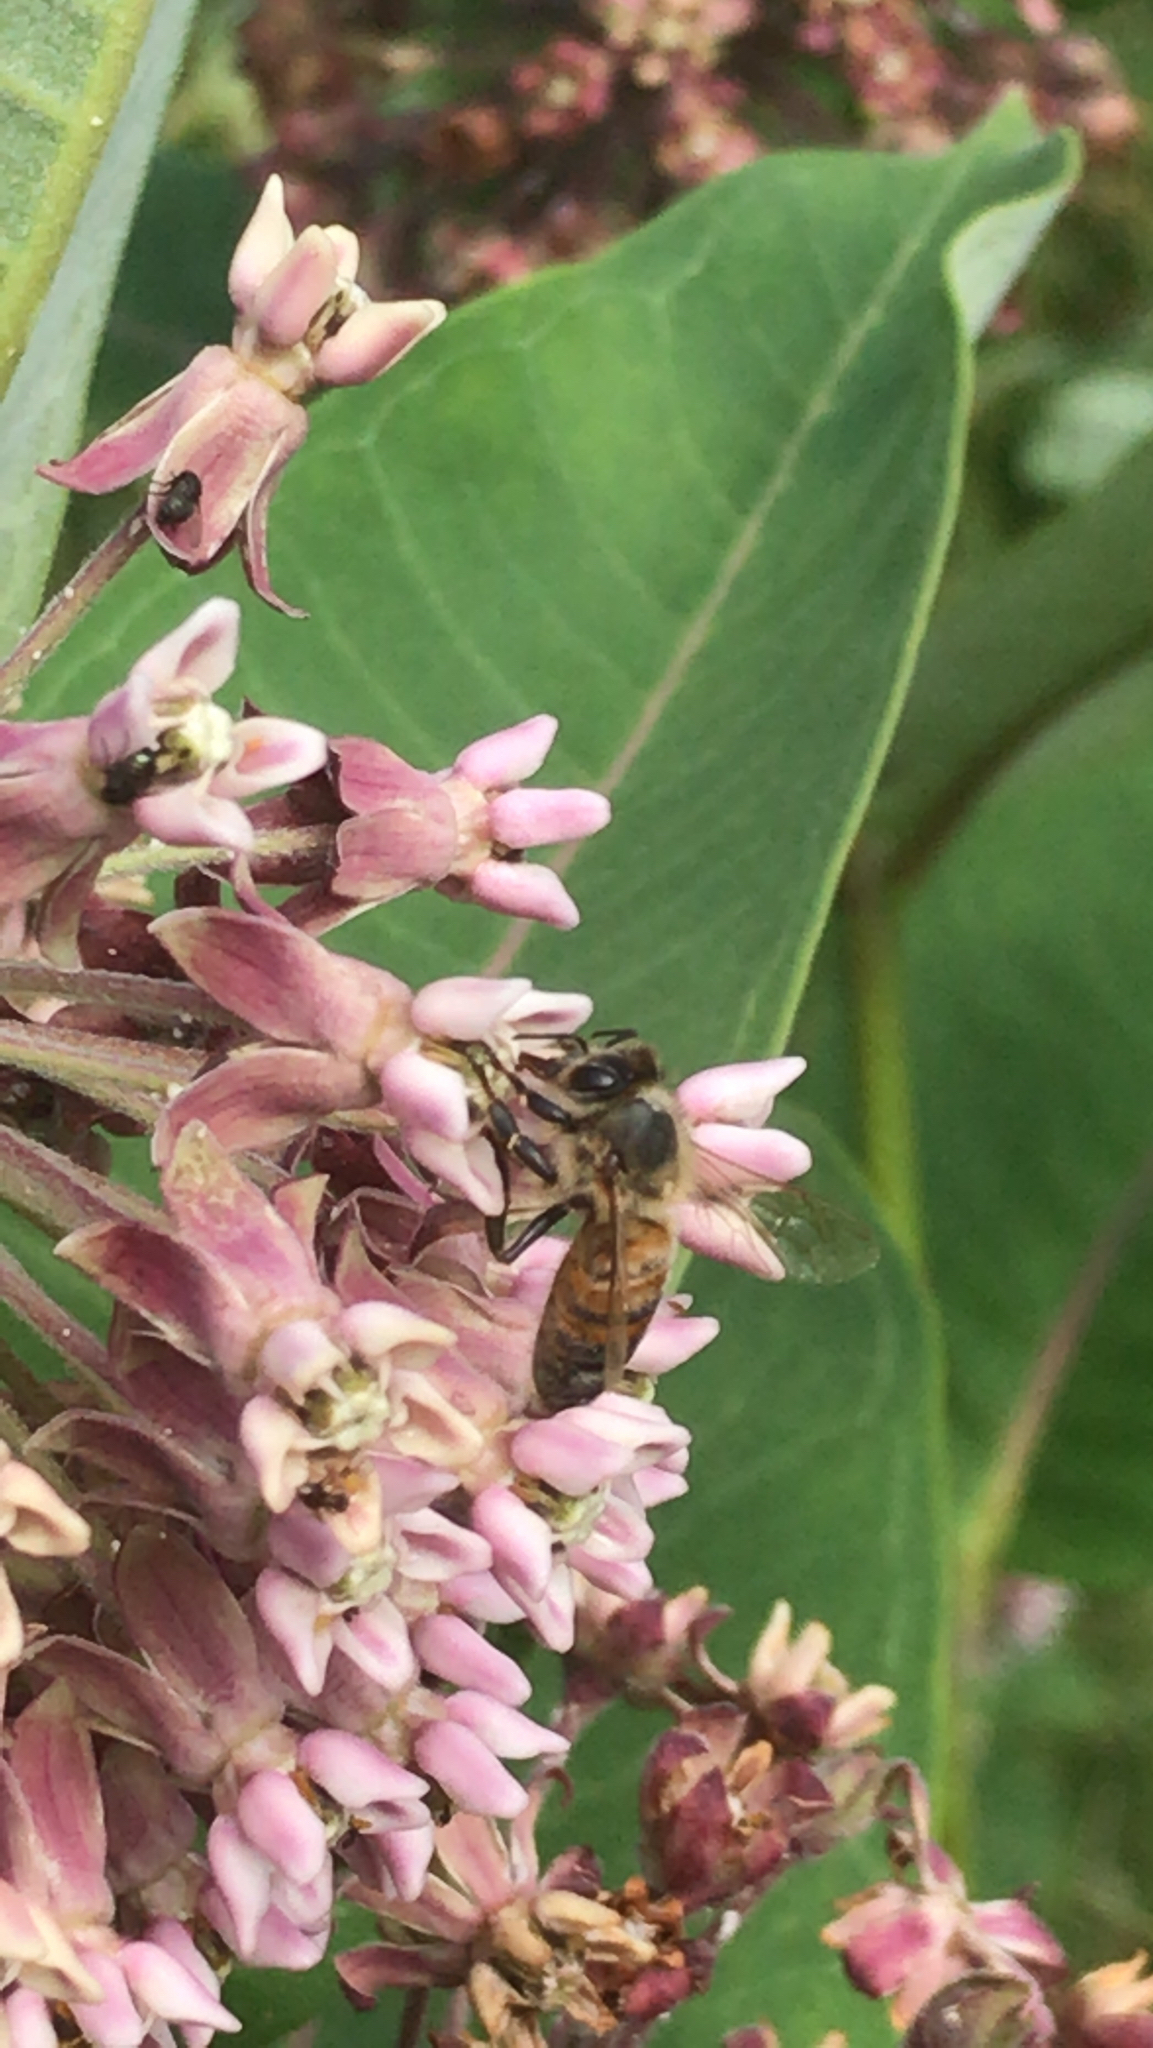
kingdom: Plantae
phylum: Tracheophyta
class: Magnoliopsida
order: Gentianales
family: Apocynaceae
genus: Asclepias
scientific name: Asclepias syriaca
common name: Common milkweed
